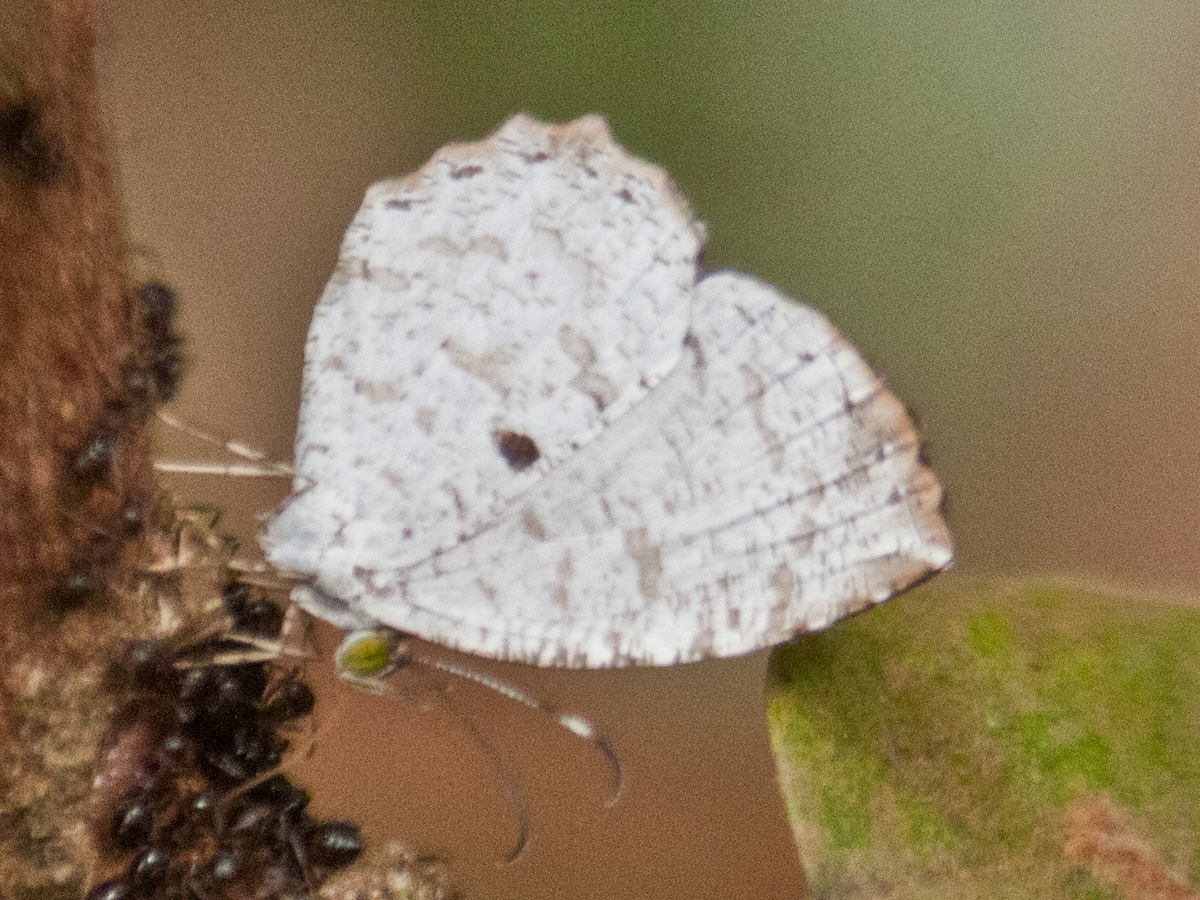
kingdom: Animalia
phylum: Arthropoda
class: Insecta
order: Lepidoptera
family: Lycaenidae
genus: Allotinus
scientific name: Allotinus substrigosa
